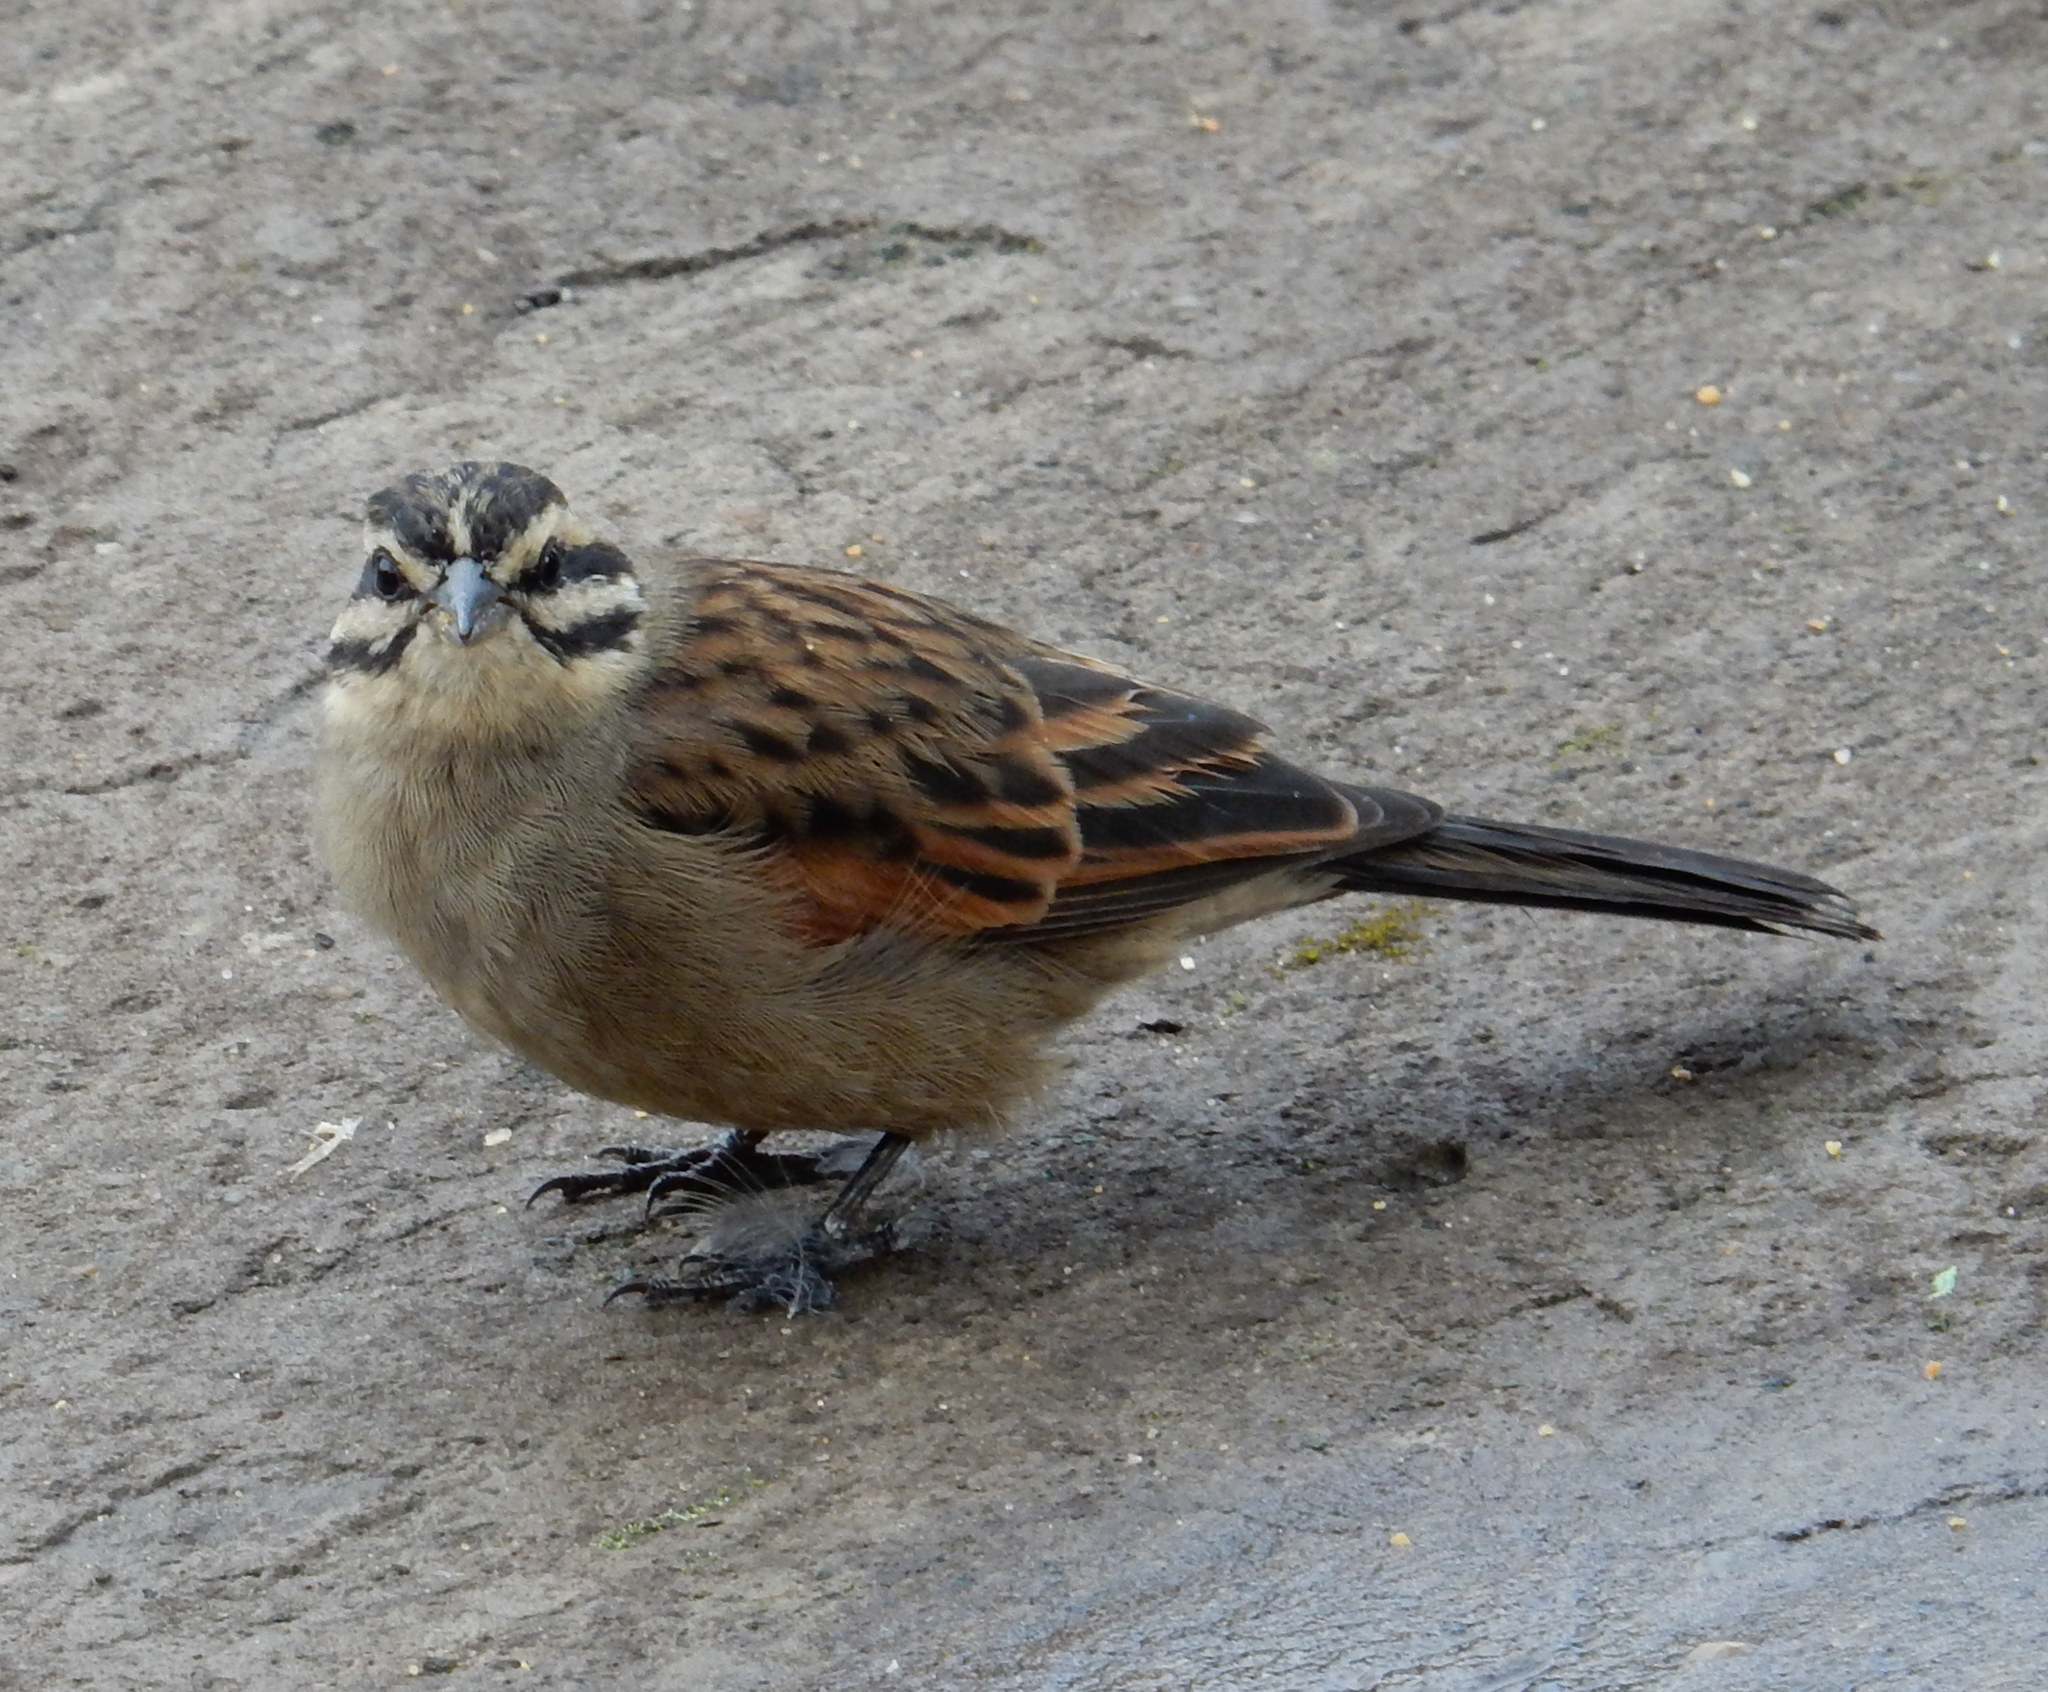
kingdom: Animalia
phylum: Chordata
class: Aves
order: Passeriformes
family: Emberizidae
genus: Emberiza
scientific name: Emberiza capensis
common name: Cape bunting
